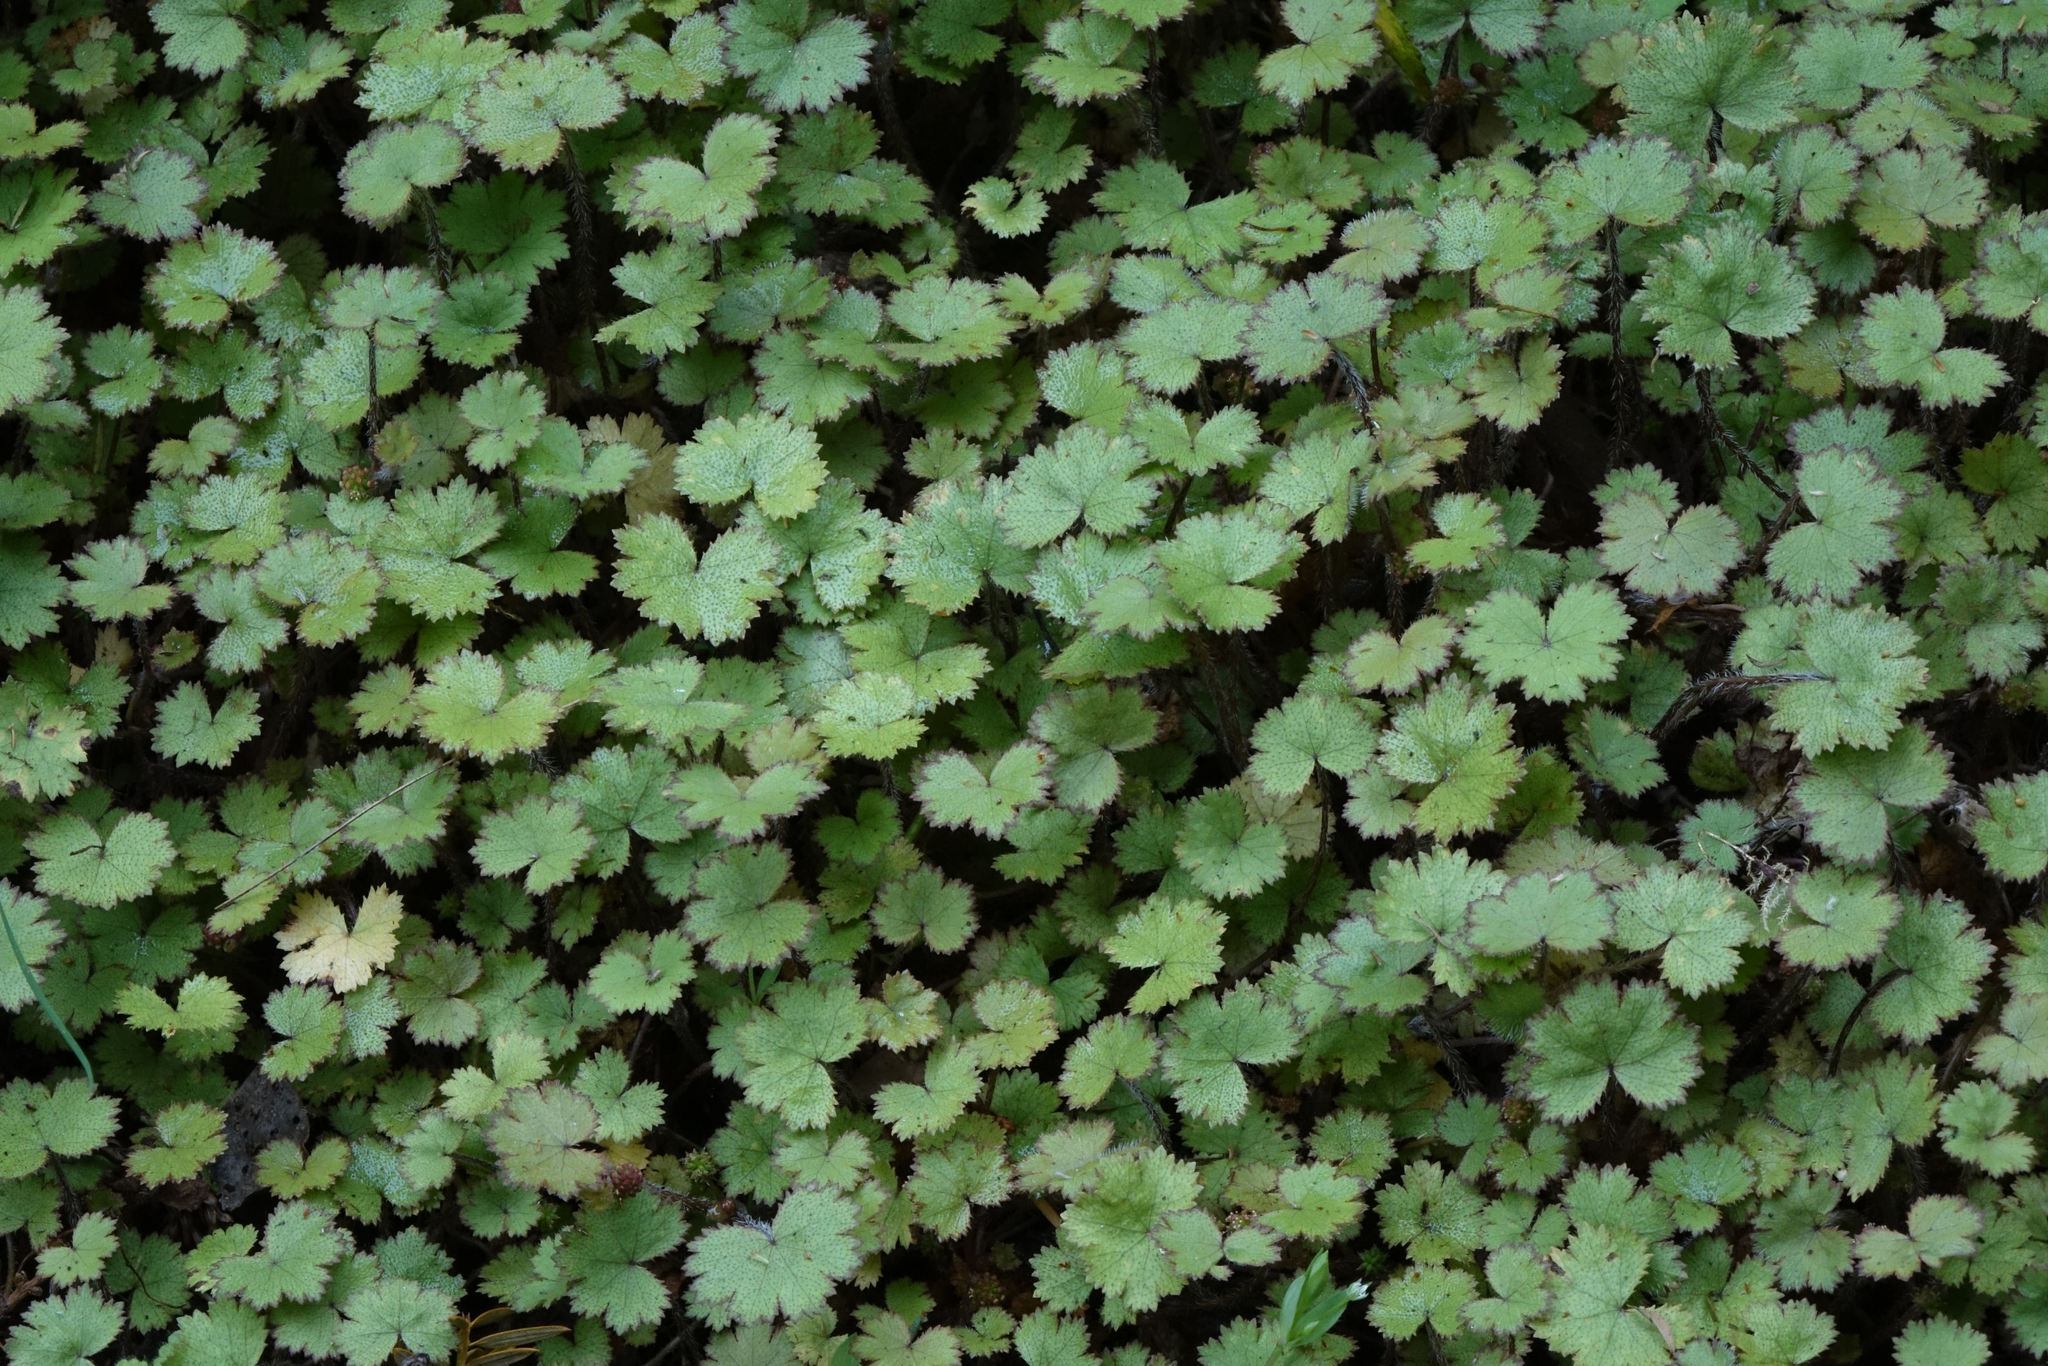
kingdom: Plantae
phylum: Tracheophyta
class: Magnoliopsida
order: Apiales
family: Araliaceae
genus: Hydrocotyle
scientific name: Hydrocotyle moschata
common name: Hairy pennywort
